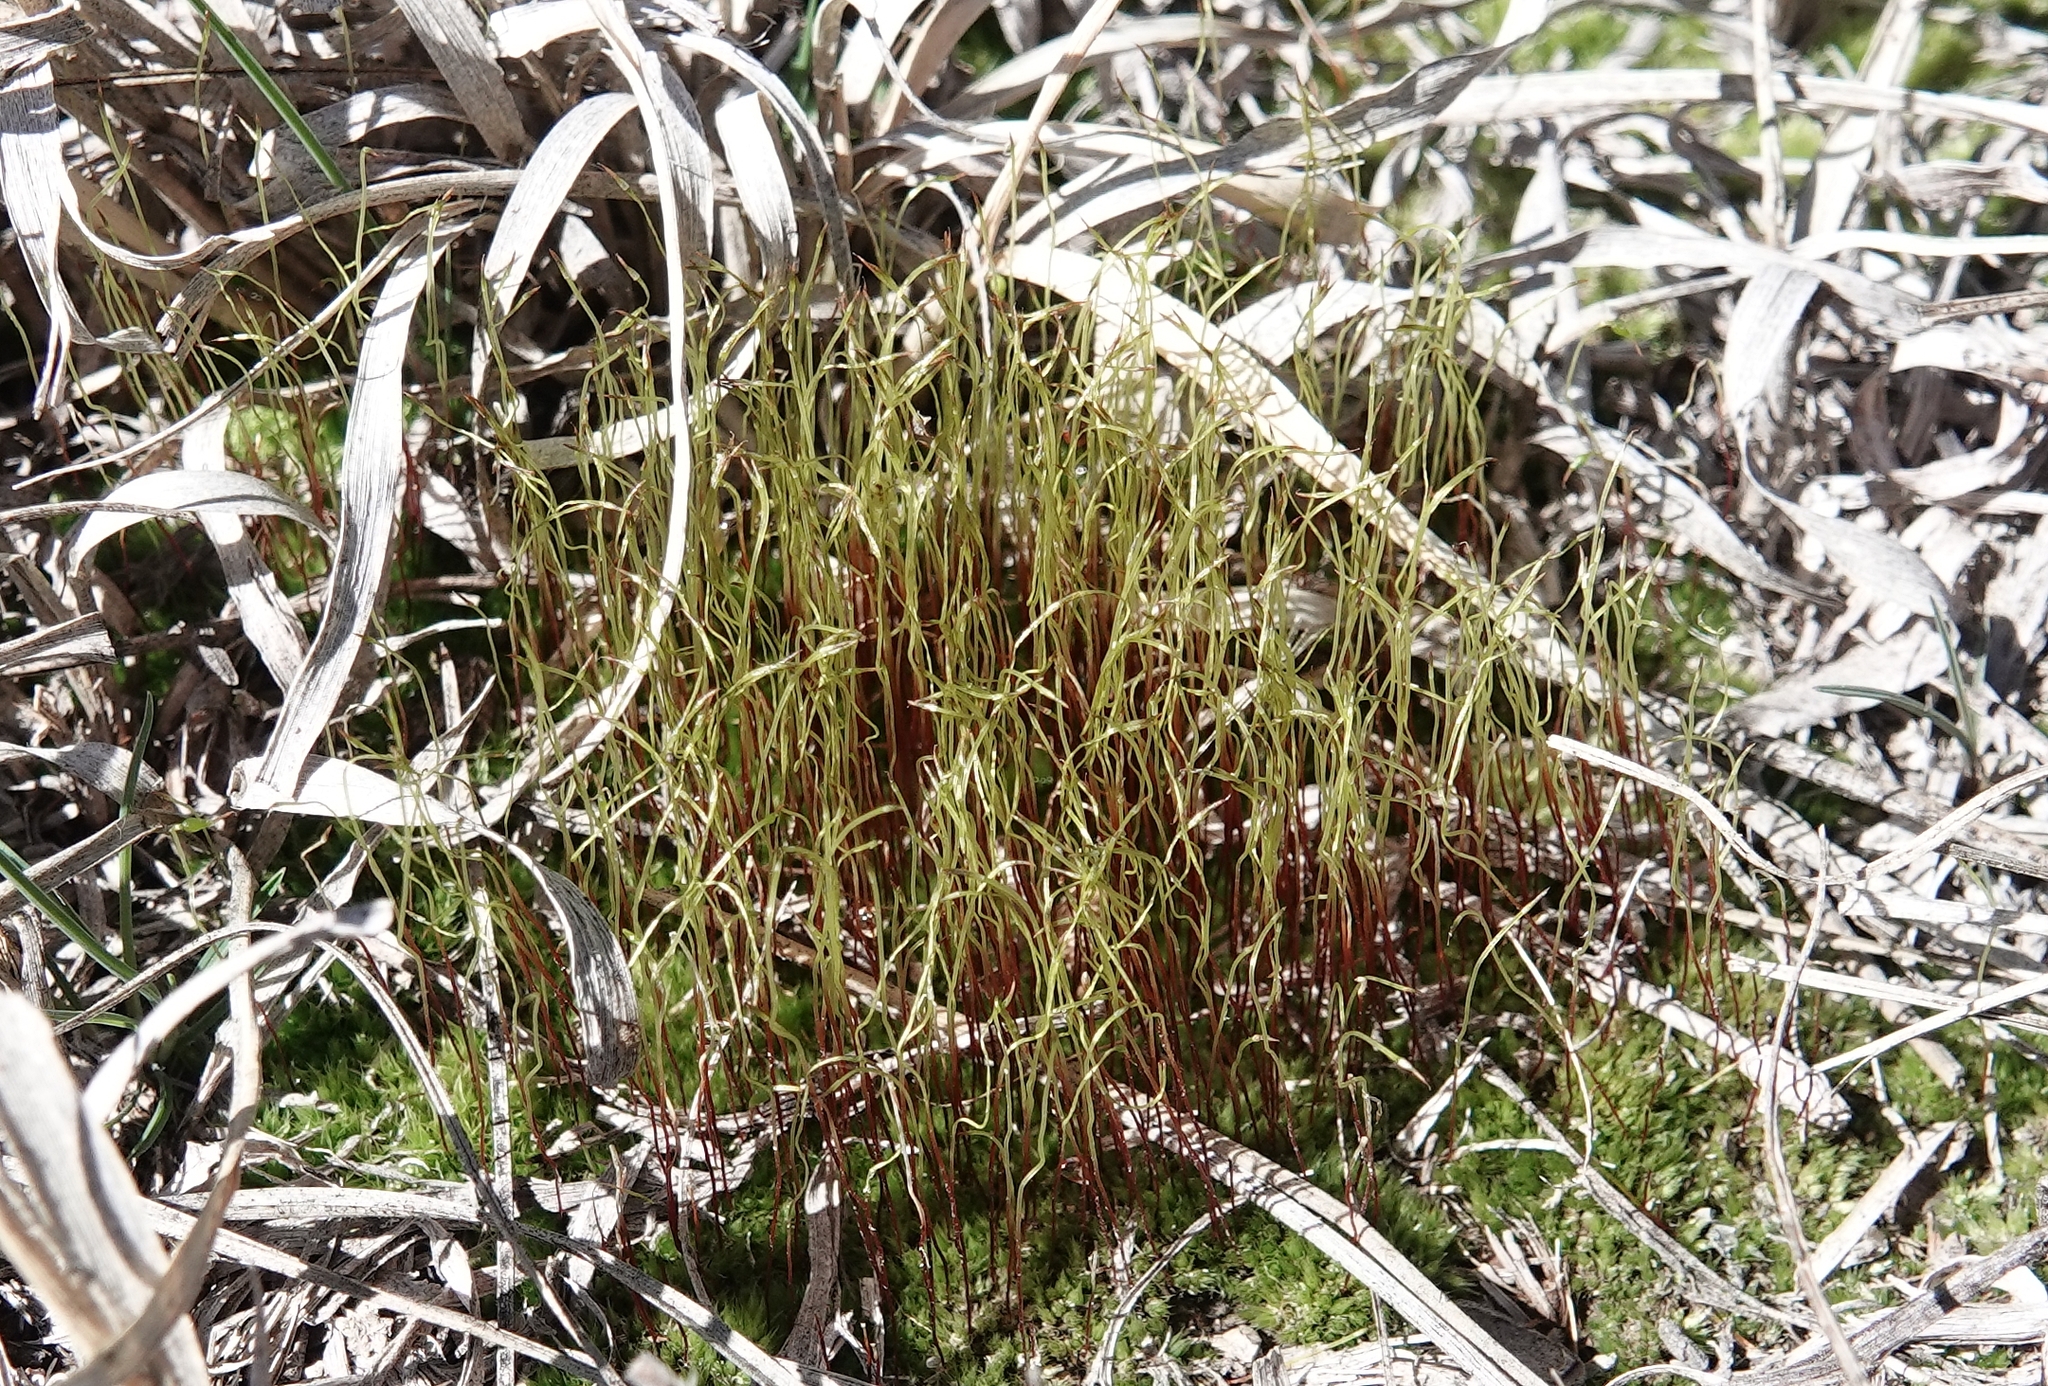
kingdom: Plantae
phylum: Bryophyta
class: Bryopsida
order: Funariales
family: Funariaceae
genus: Funaria
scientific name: Funaria hygrometrica
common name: Common cord moss
